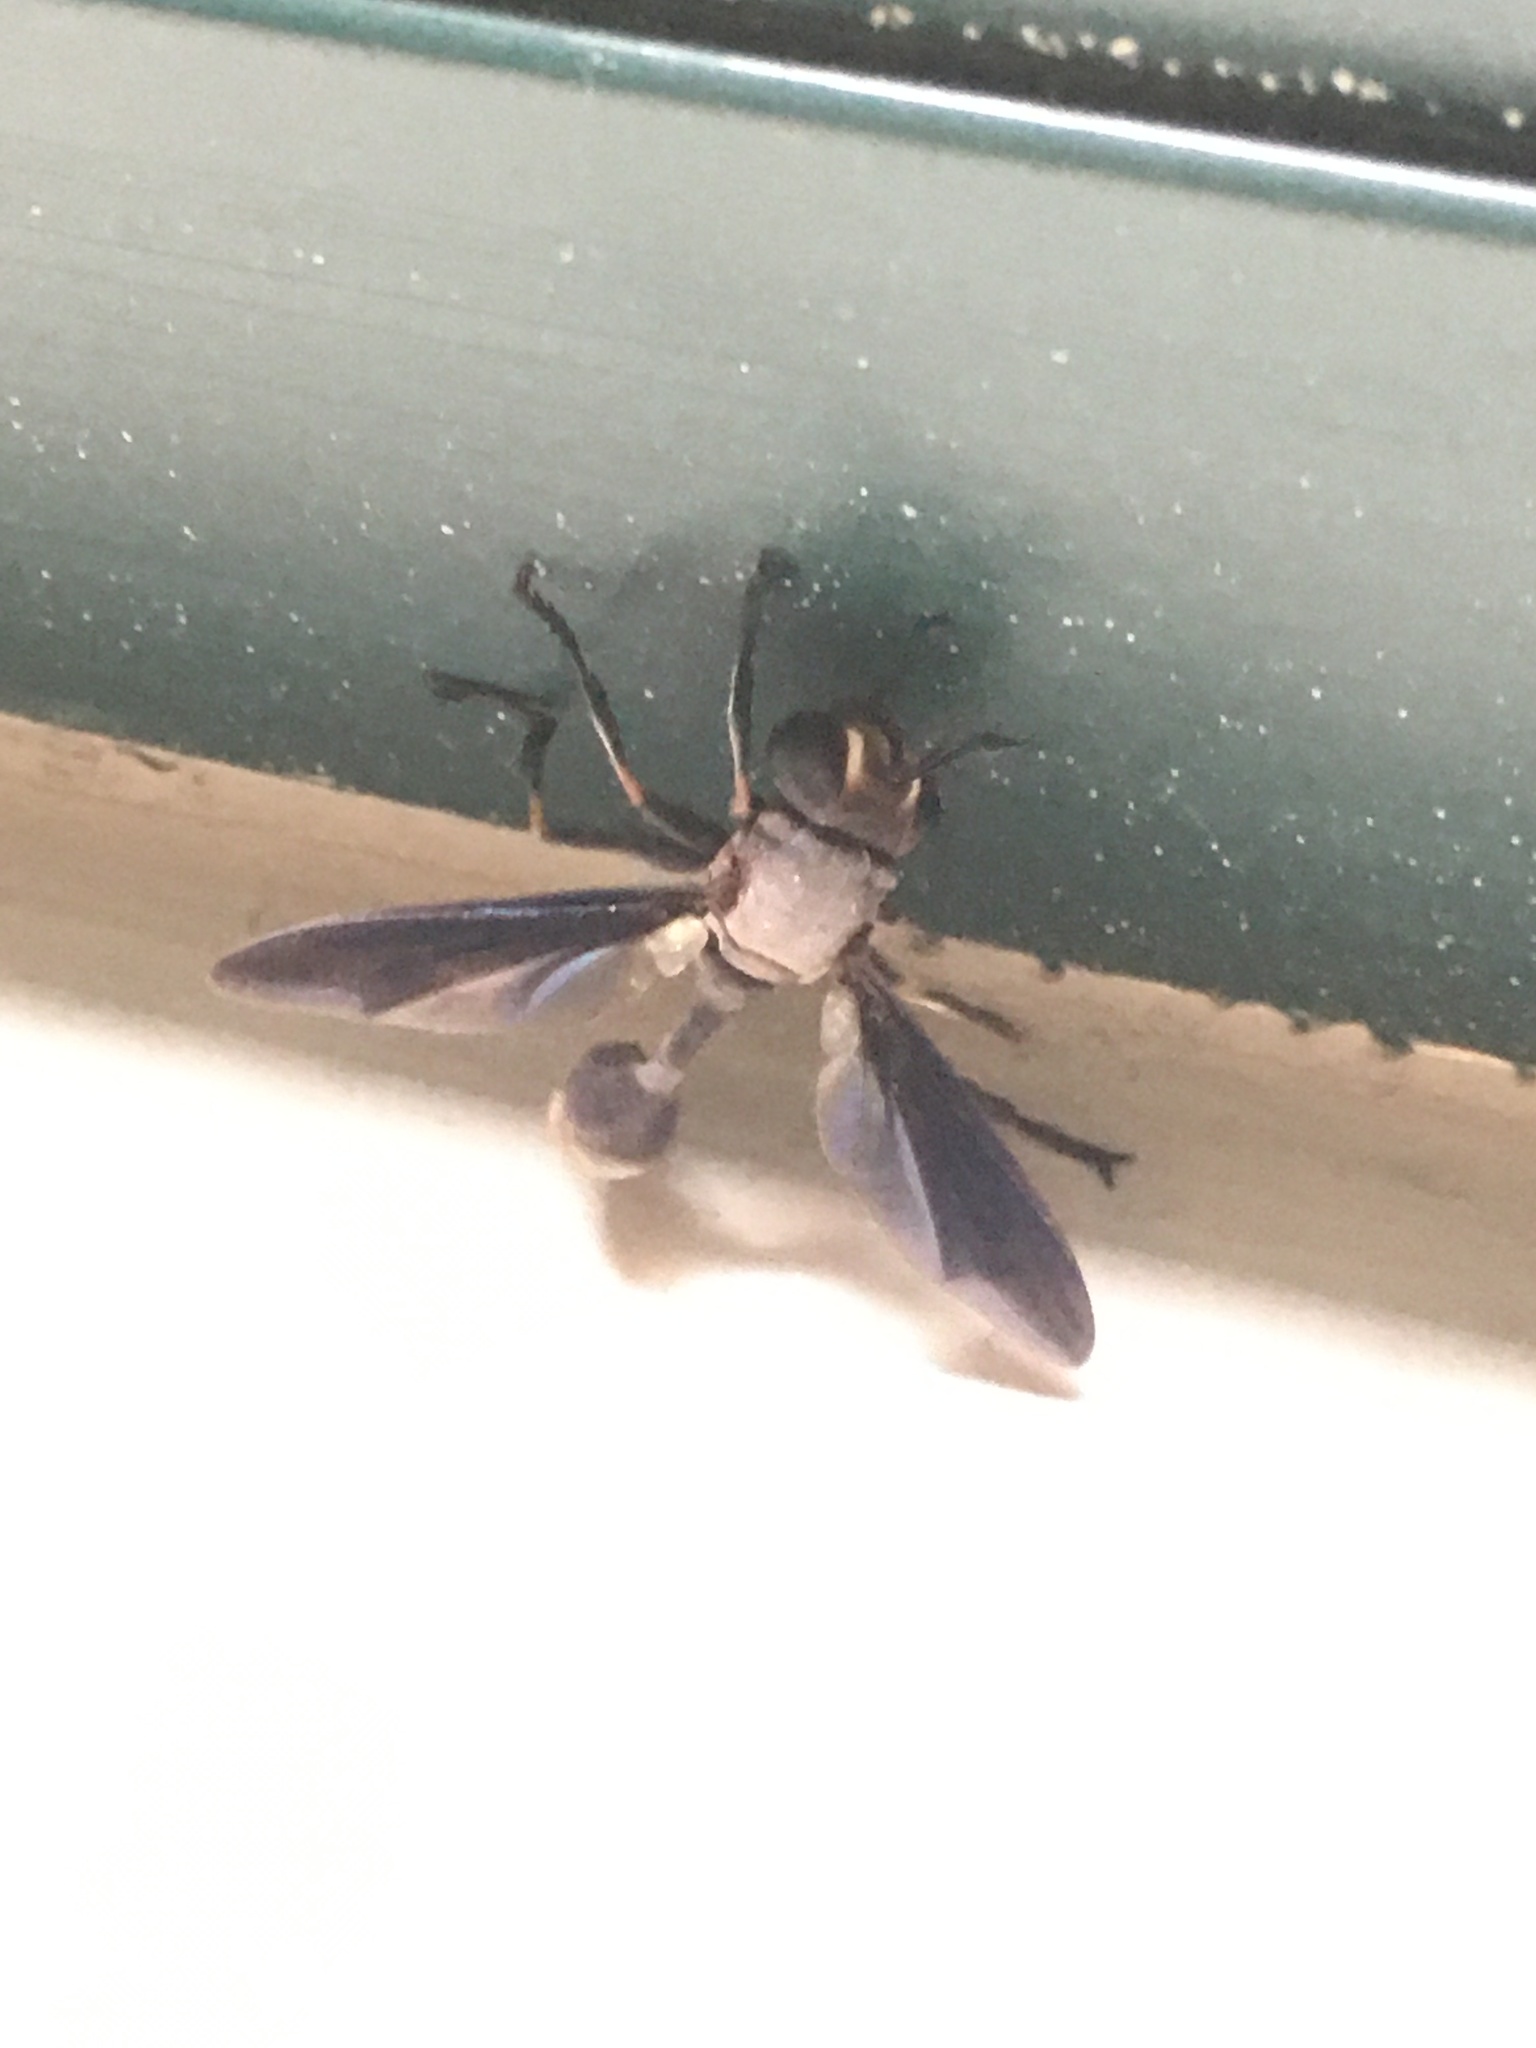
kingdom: Animalia
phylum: Arthropoda
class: Insecta
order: Diptera
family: Conopidae
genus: Physocephala
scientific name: Physocephala tibialis
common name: Common eastern physocephala
